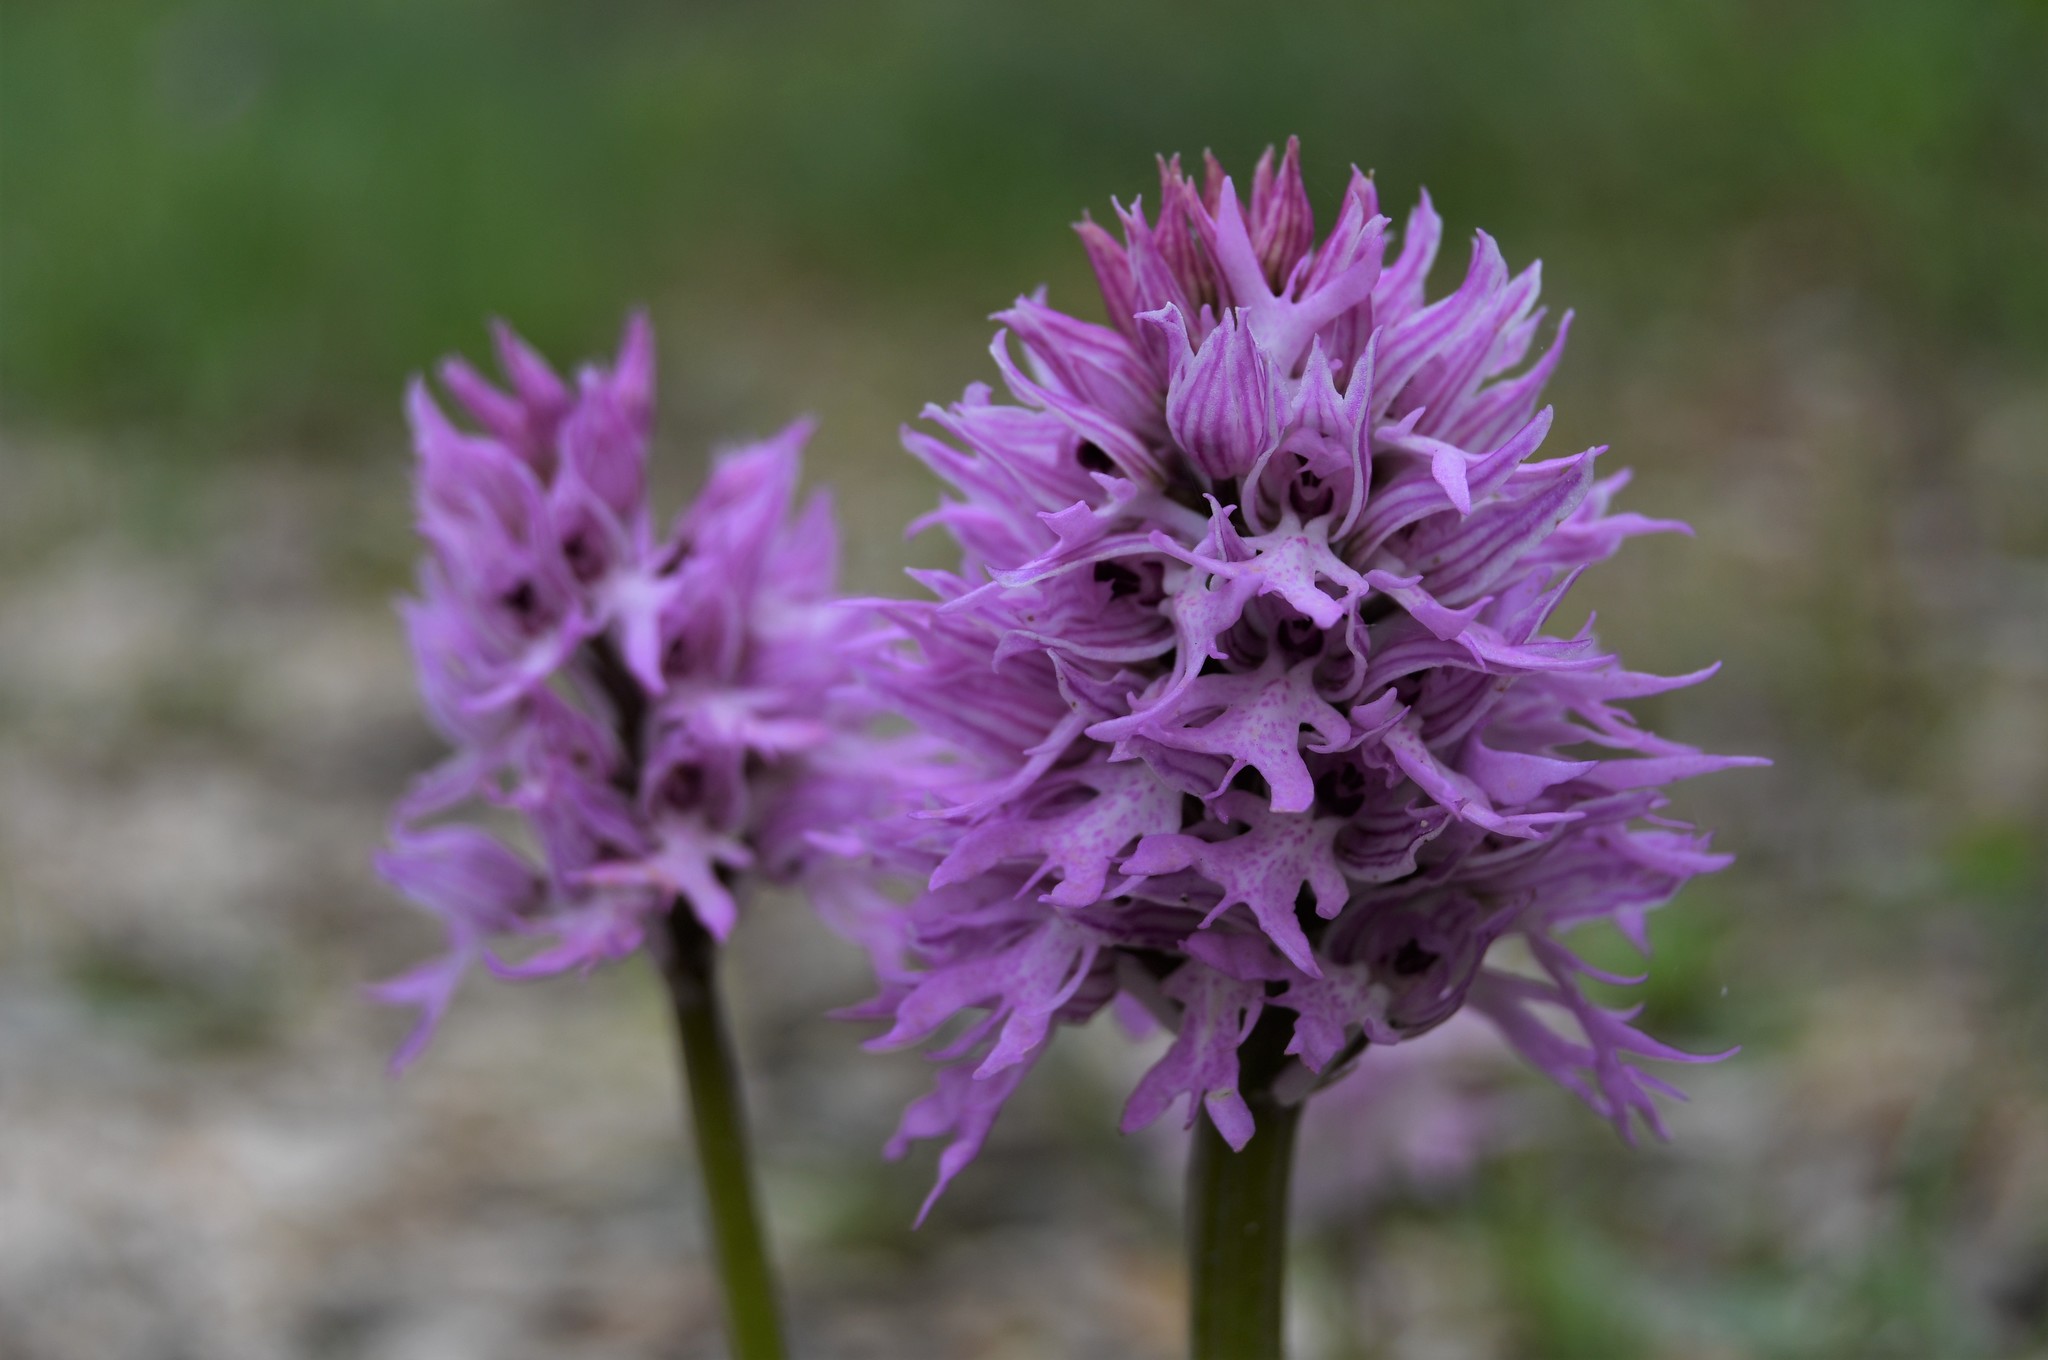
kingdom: Plantae
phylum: Tracheophyta
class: Liliopsida
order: Asparagales
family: Orchidaceae
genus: Orchis
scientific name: Orchis italica
